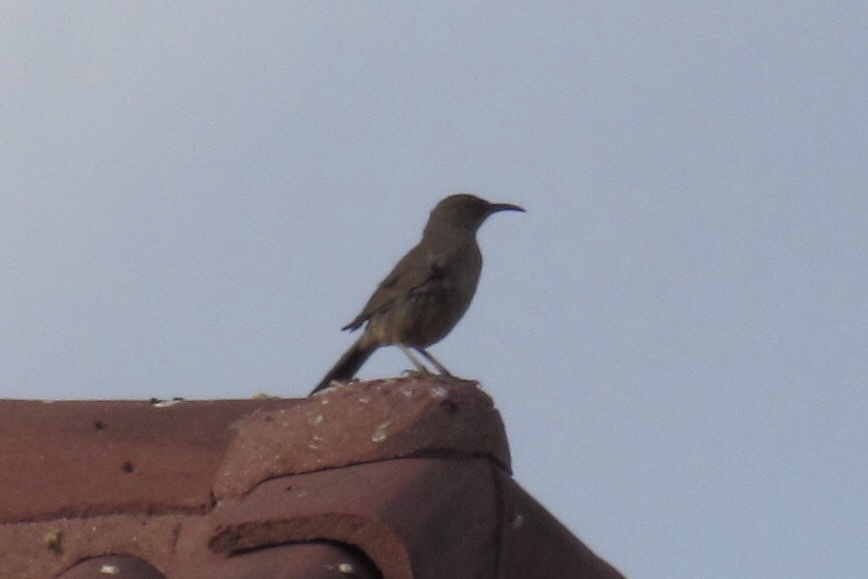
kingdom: Animalia
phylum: Chordata
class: Aves
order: Passeriformes
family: Mimidae
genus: Toxostoma
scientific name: Toxostoma curvirostre
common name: Curve-billed thrasher
